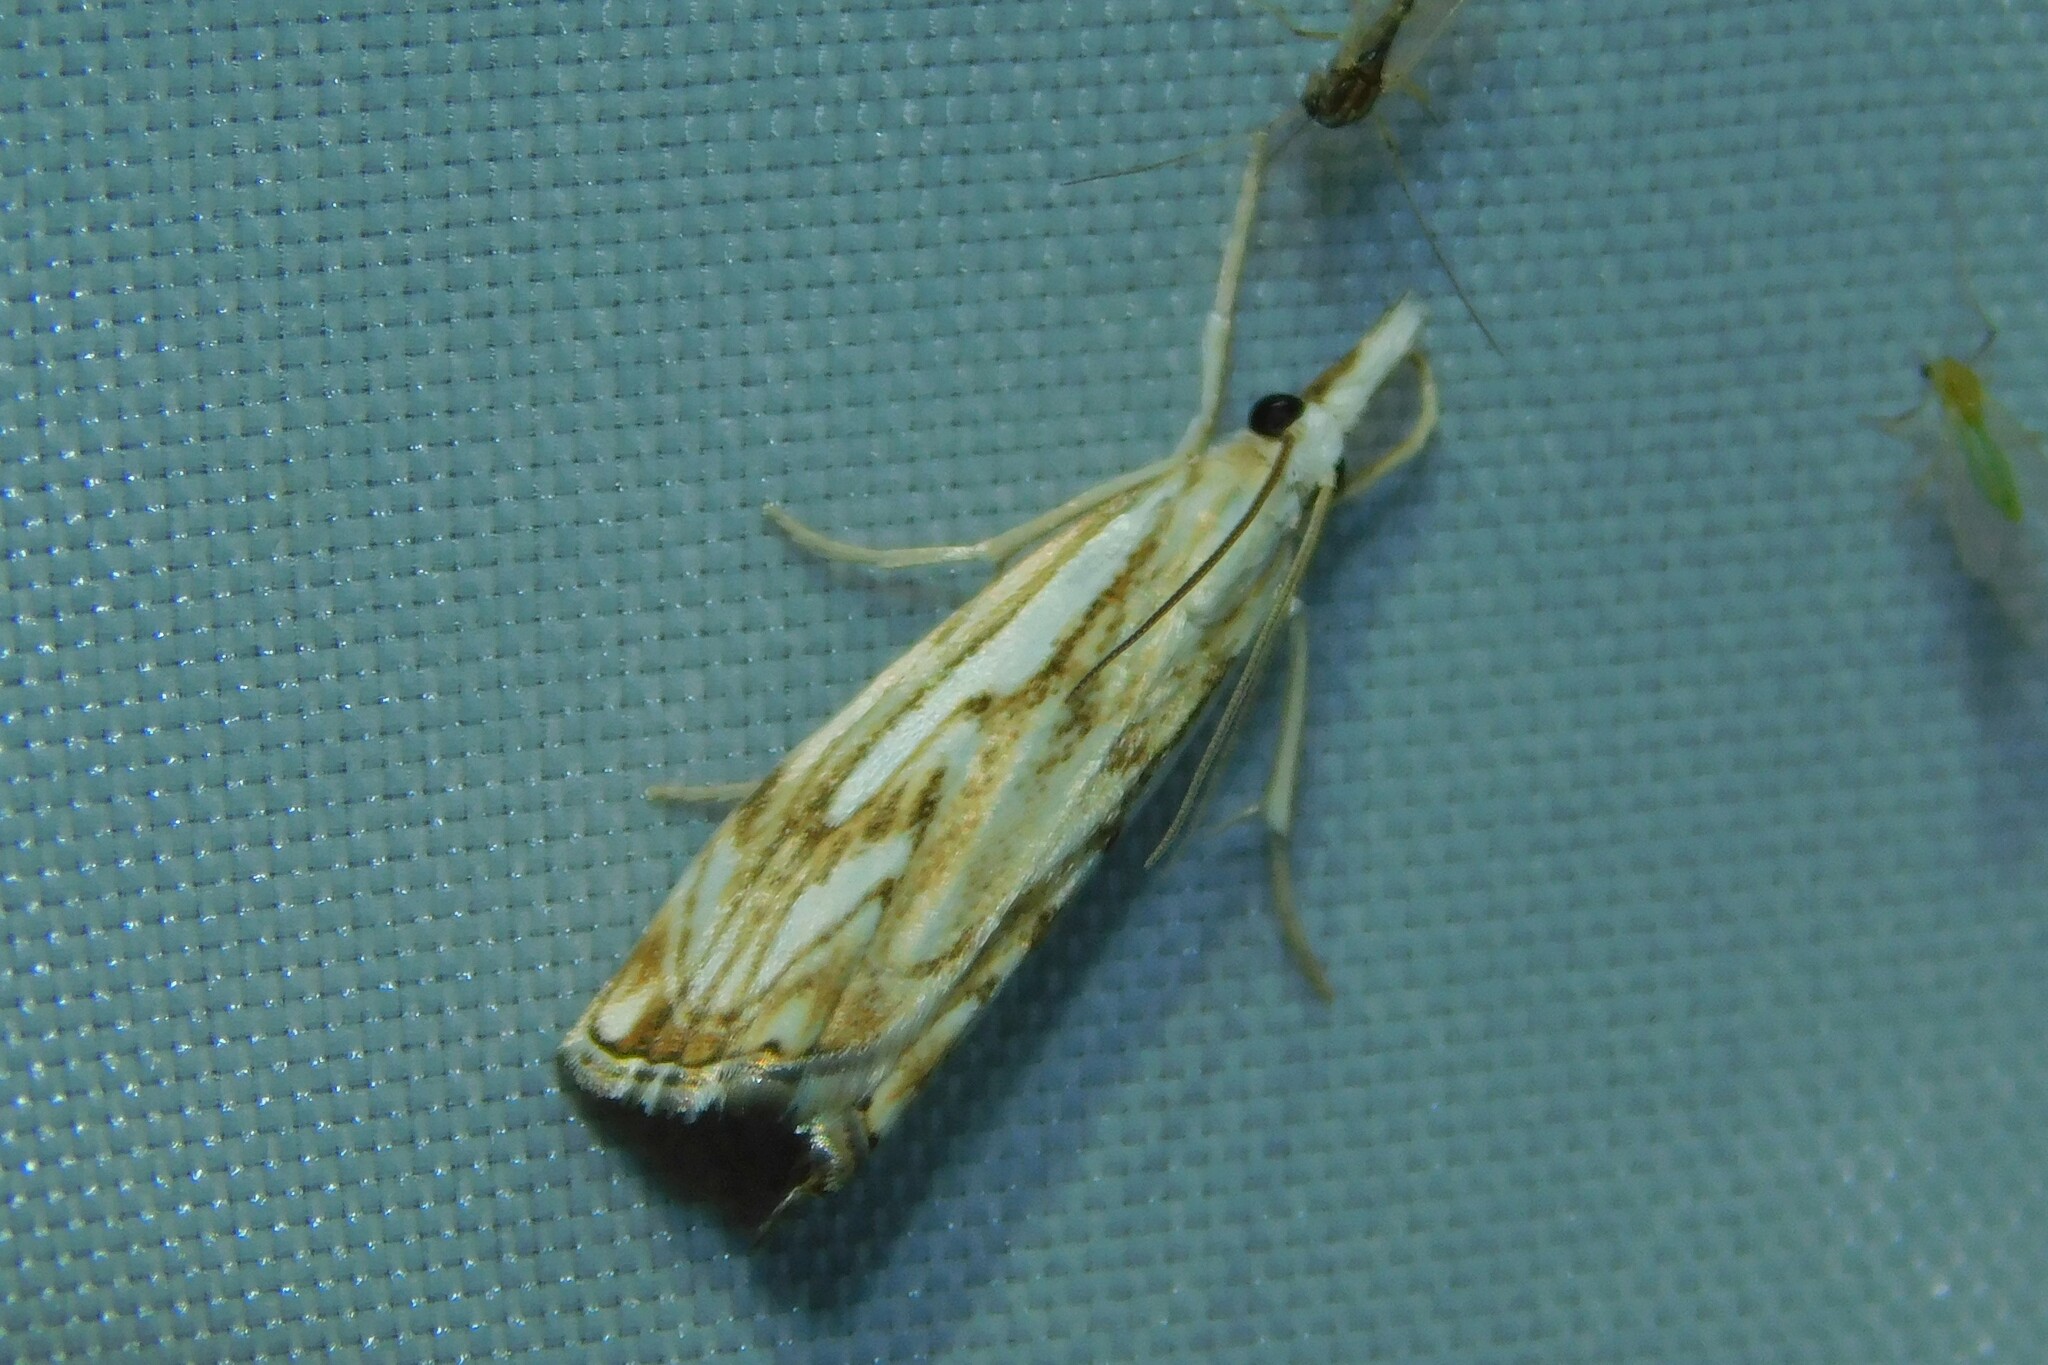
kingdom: Animalia
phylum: Arthropoda
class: Insecta
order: Lepidoptera
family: Crambidae
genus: Catoptria
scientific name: Catoptria falsella
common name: Chequered grass-veneer
